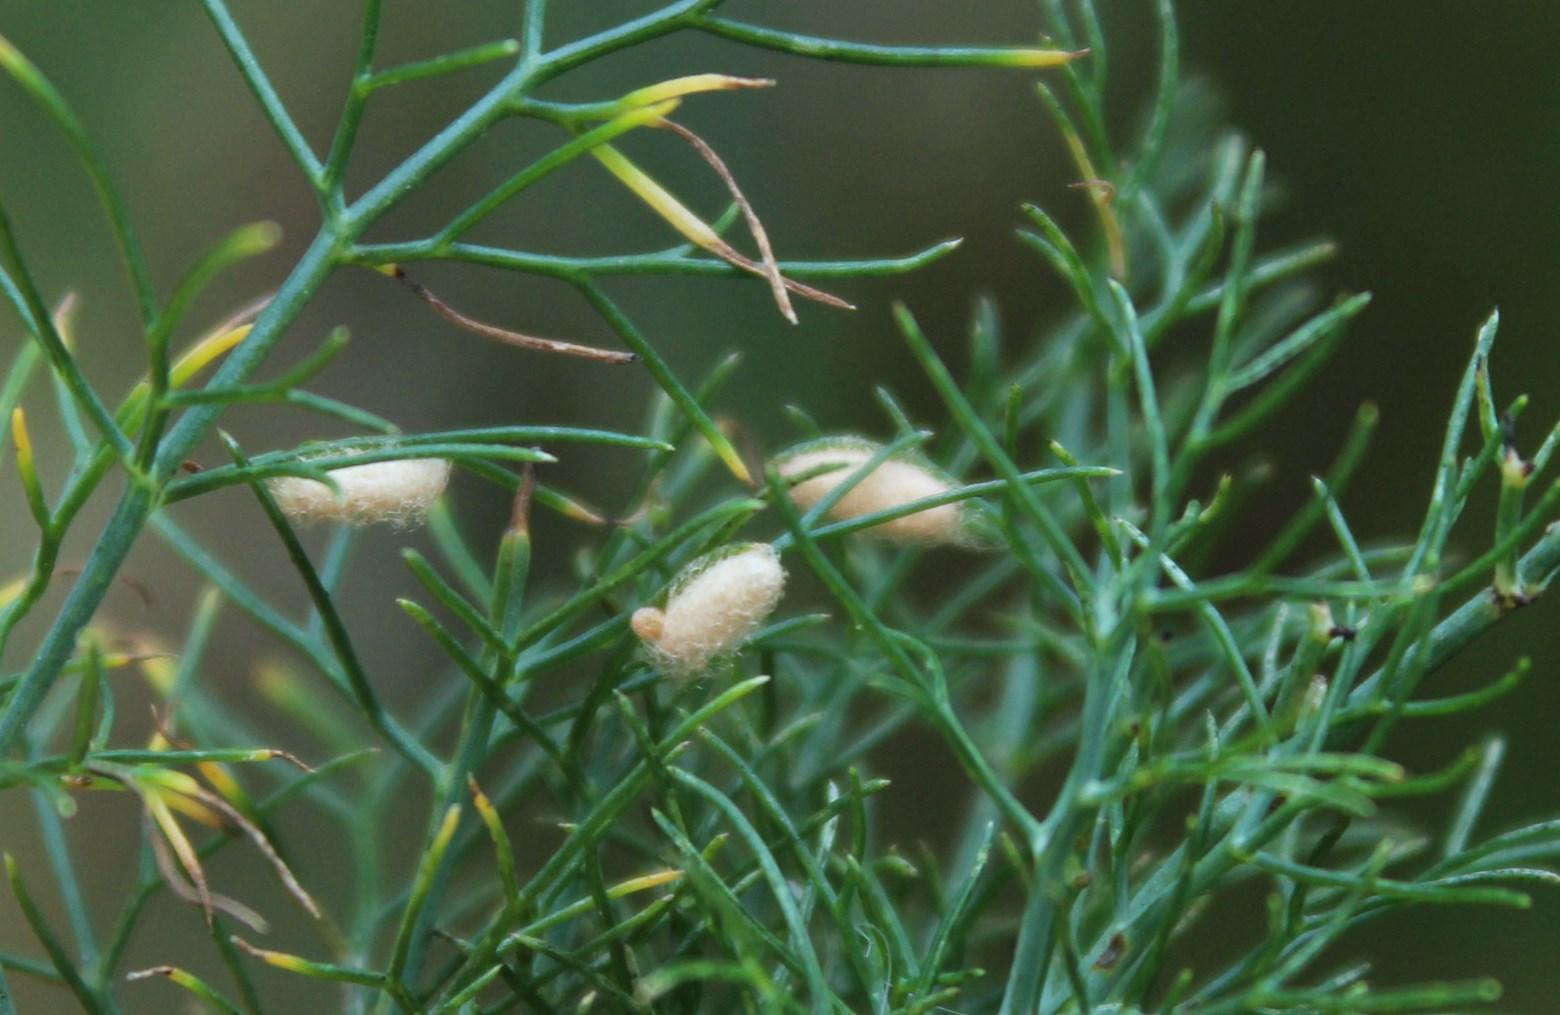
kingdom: Animalia
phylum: Arthropoda
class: Insecta
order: Hymenoptera
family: Braconidae
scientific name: Braconidae
